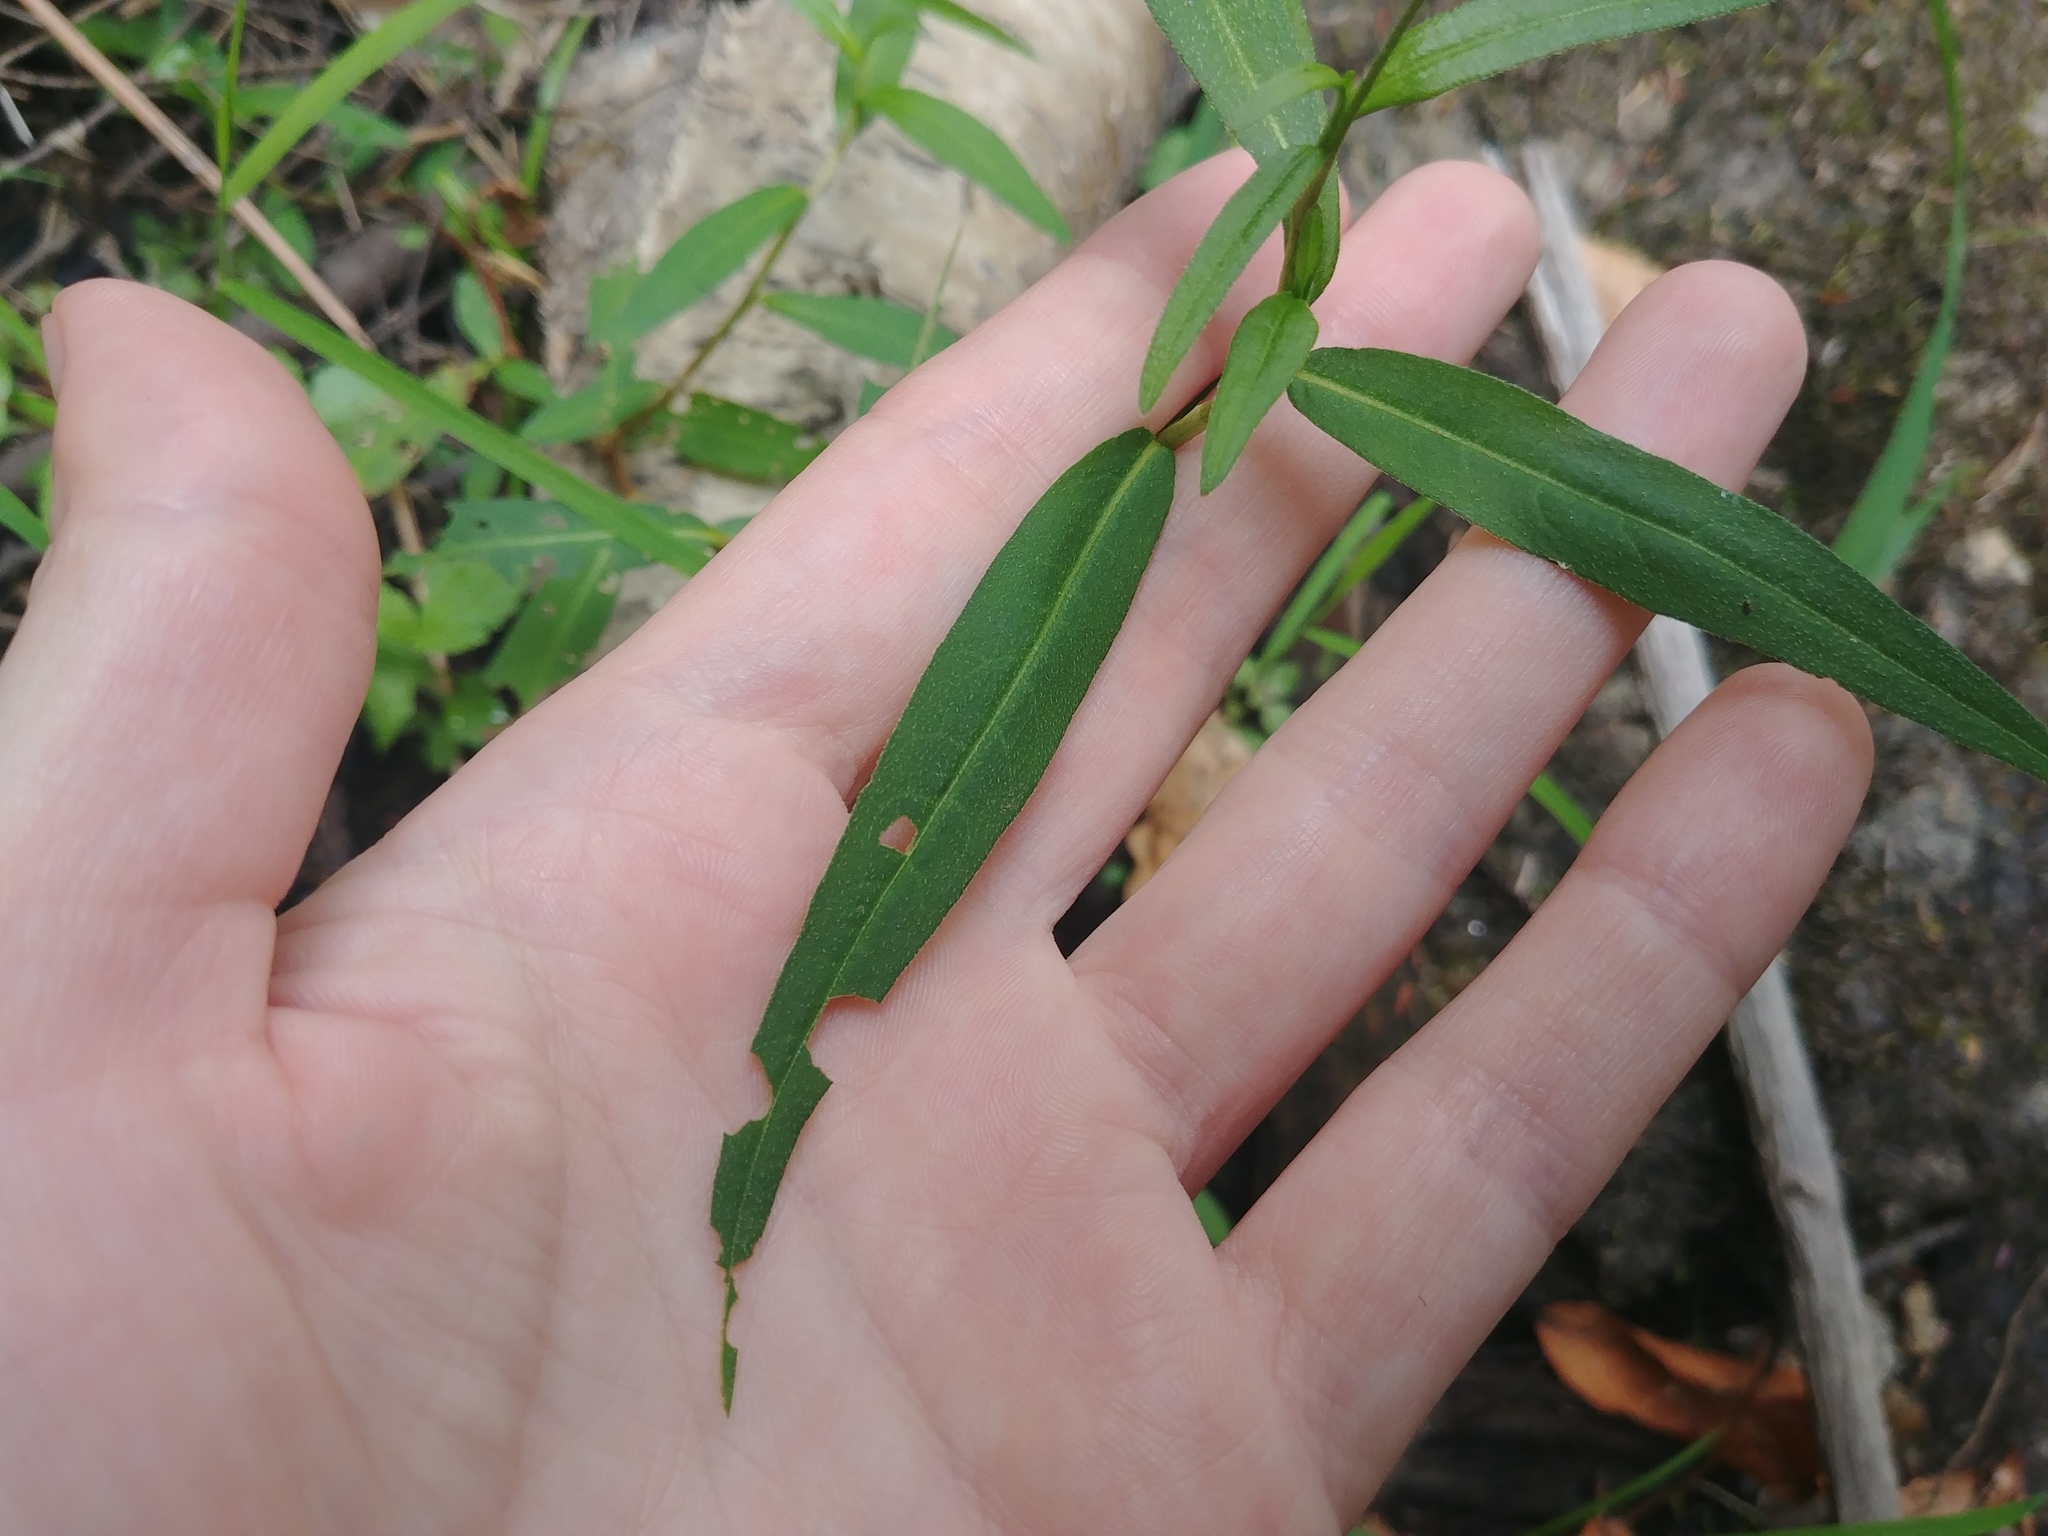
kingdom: Plantae
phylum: Tracheophyta
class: Magnoliopsida
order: Caryophyllales
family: Polygonaceae
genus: Persicaria
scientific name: Persicaria hydropiperoides
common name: Swamp smartweed
